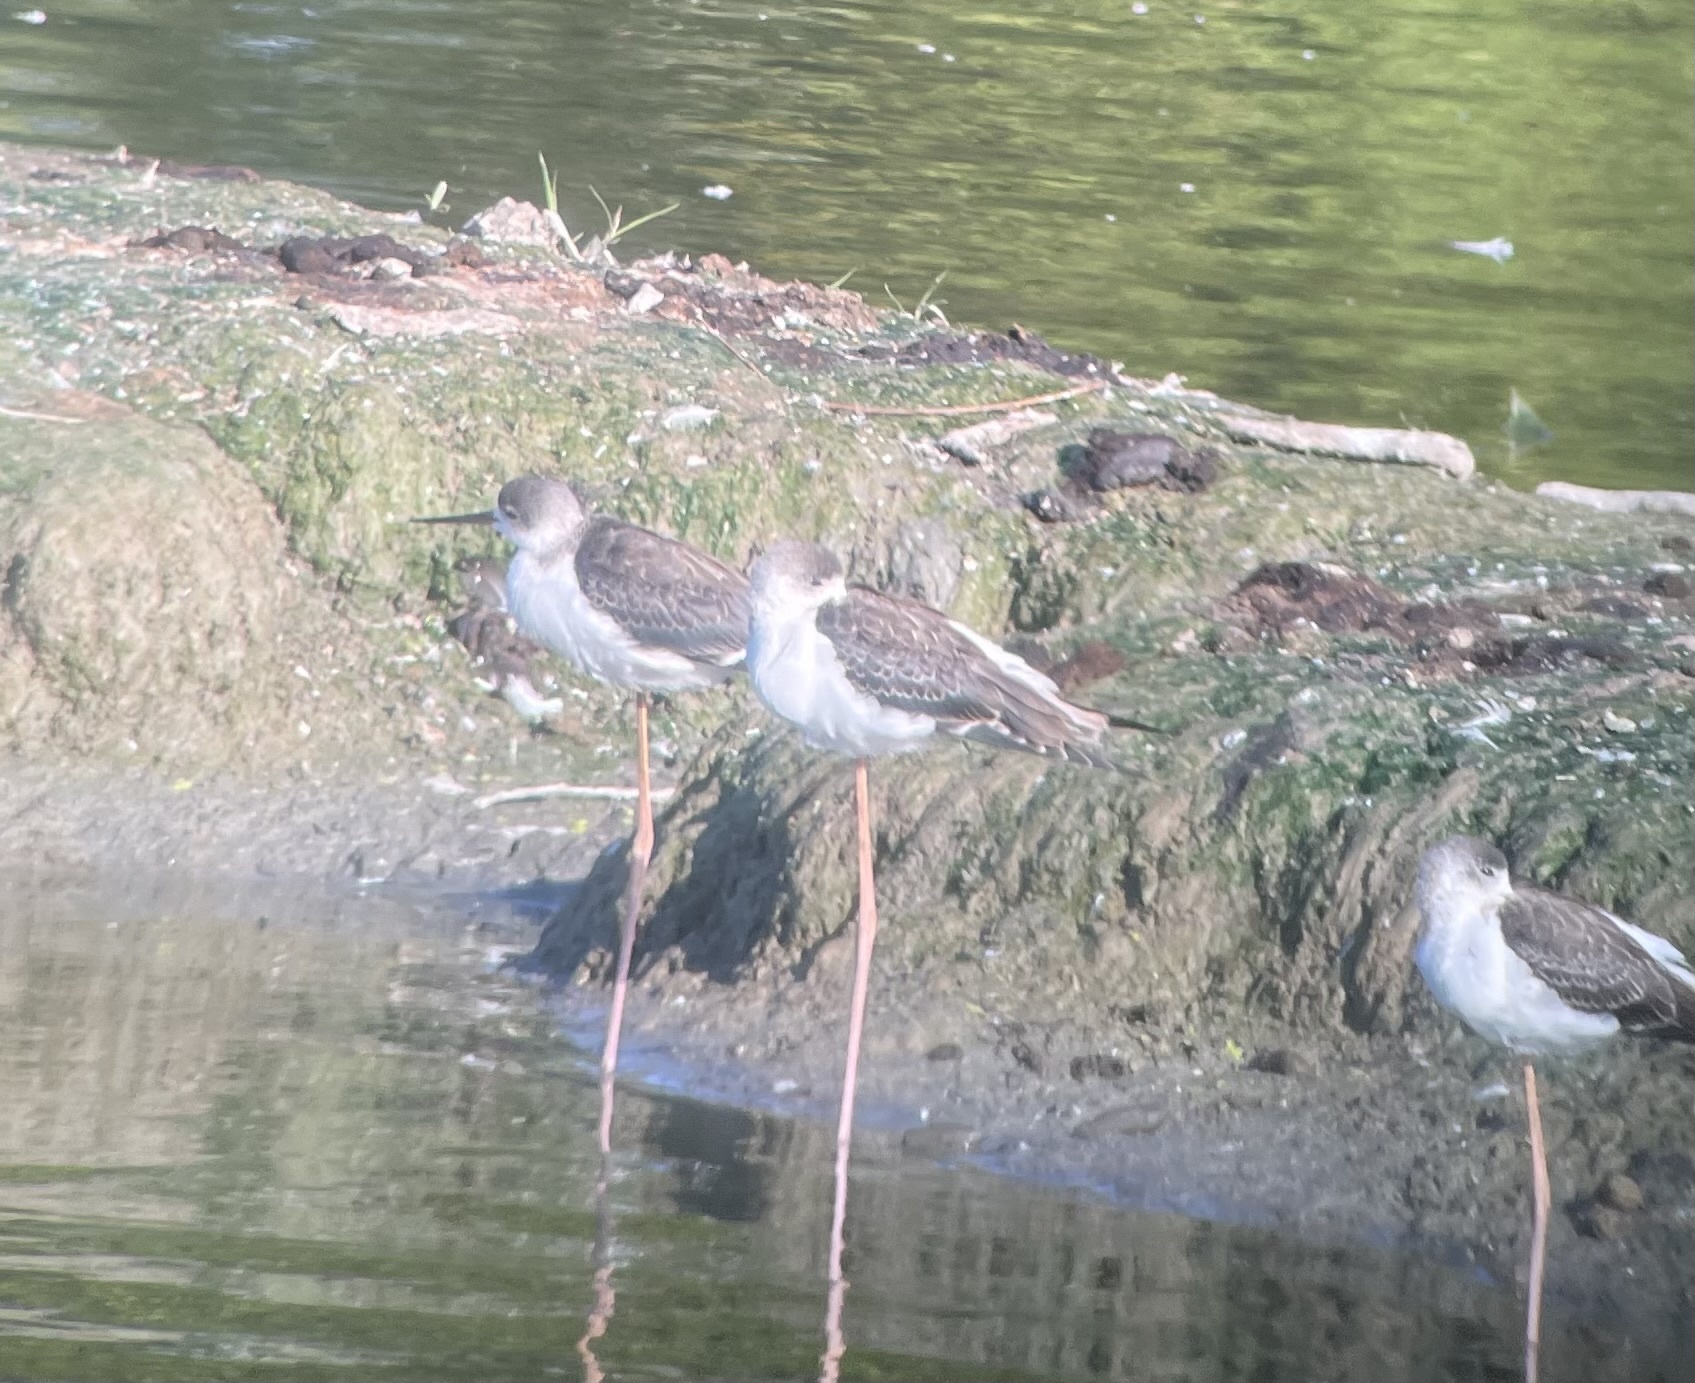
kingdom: Animalia
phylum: Chordata
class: Aves
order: Charadriiformes
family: Recurvirostridae
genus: Himantopus
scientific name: Himantopus himantopus
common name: Black-winged stilt
